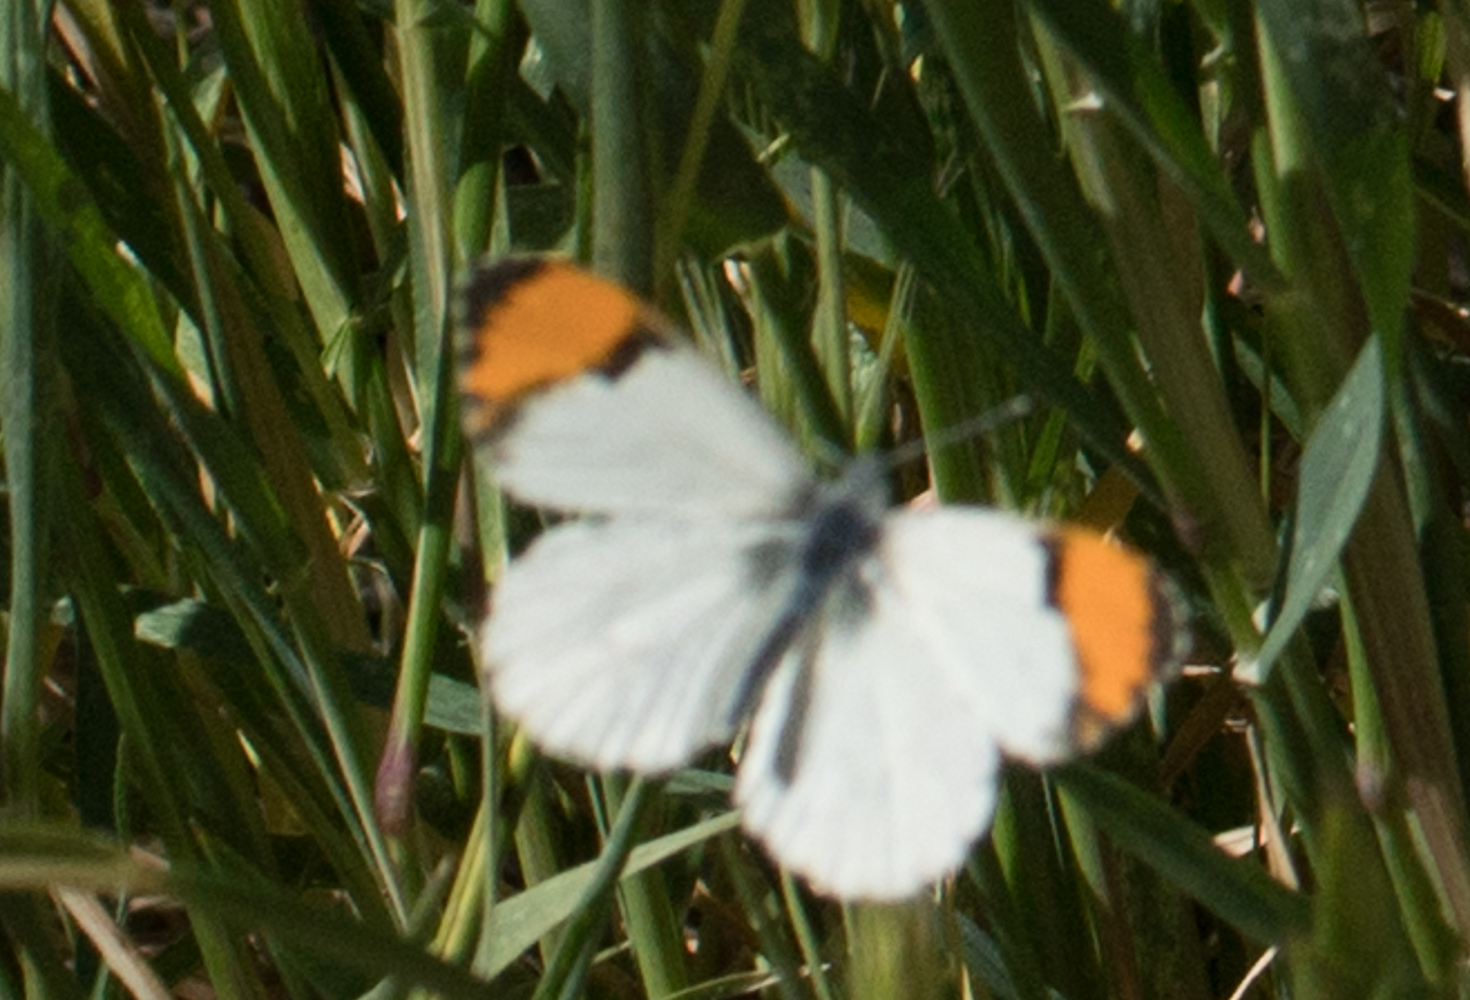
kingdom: Animalia
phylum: Arthropoda
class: Insecta
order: Lepidoptera
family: Pieridae
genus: Anthocharis
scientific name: Anthocharis sara
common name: Sara's orangetip
